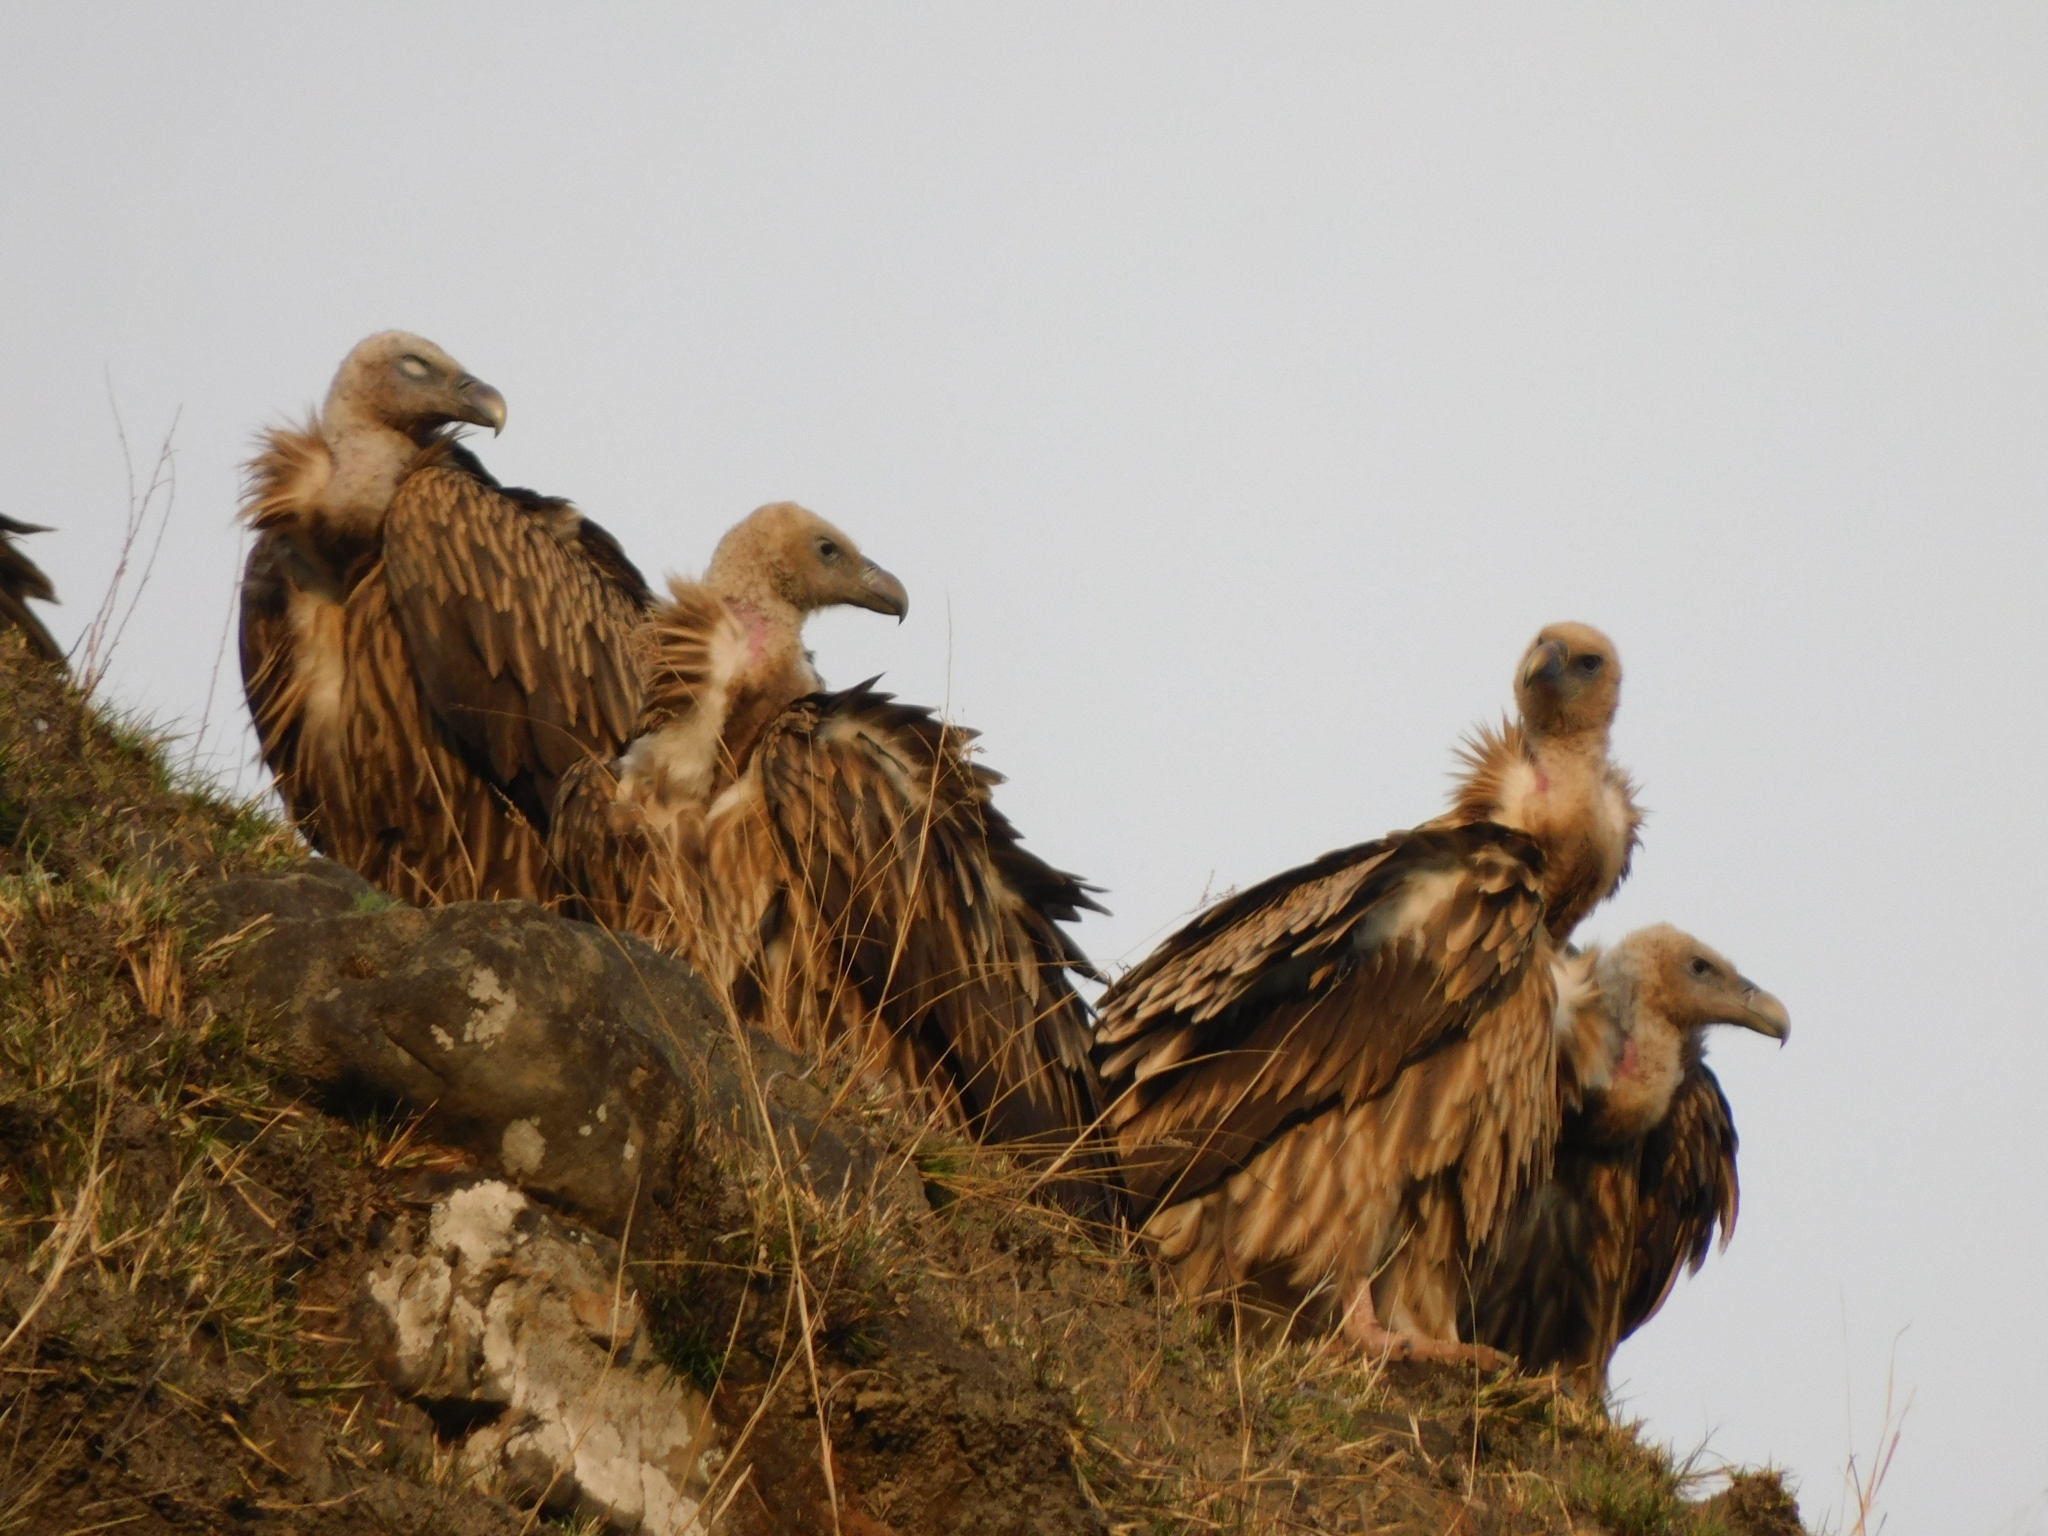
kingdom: Animalia
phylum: Chordata
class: Aves
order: Accipitriformes
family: Accipitridae
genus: Gyps
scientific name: Gyps himalayensis
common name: Himalayan griffon
